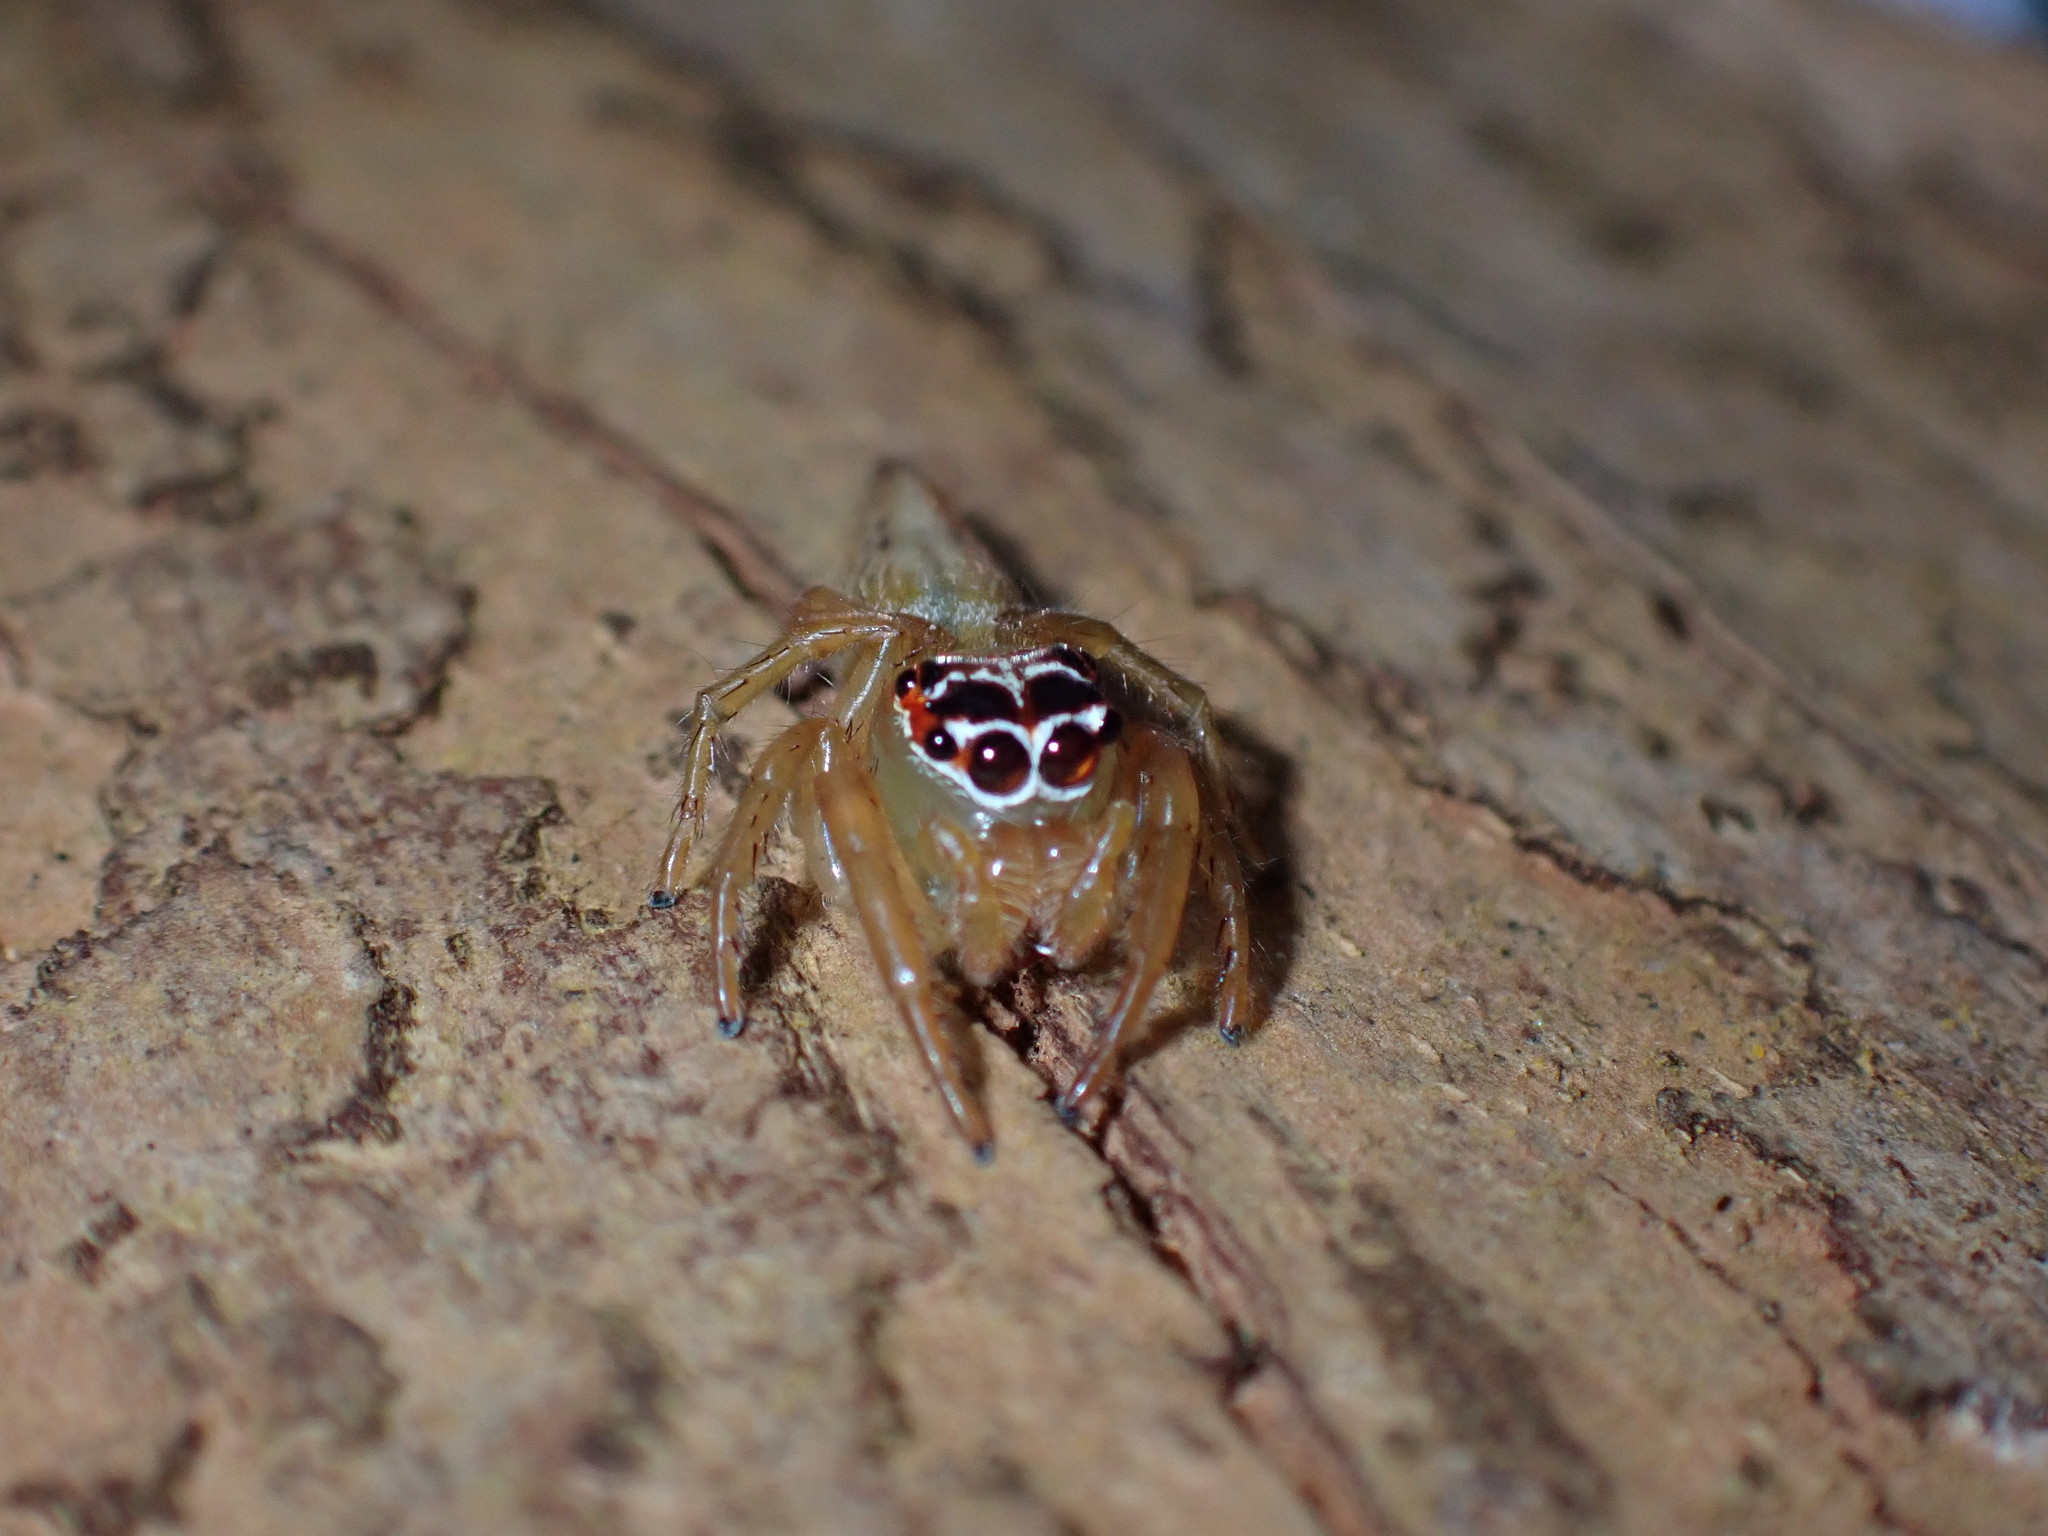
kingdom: Animalia
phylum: Arthropoda
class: Arachnida
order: Araneae
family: Salticidae
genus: Artabrus
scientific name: Artabrus erythrocephalus
